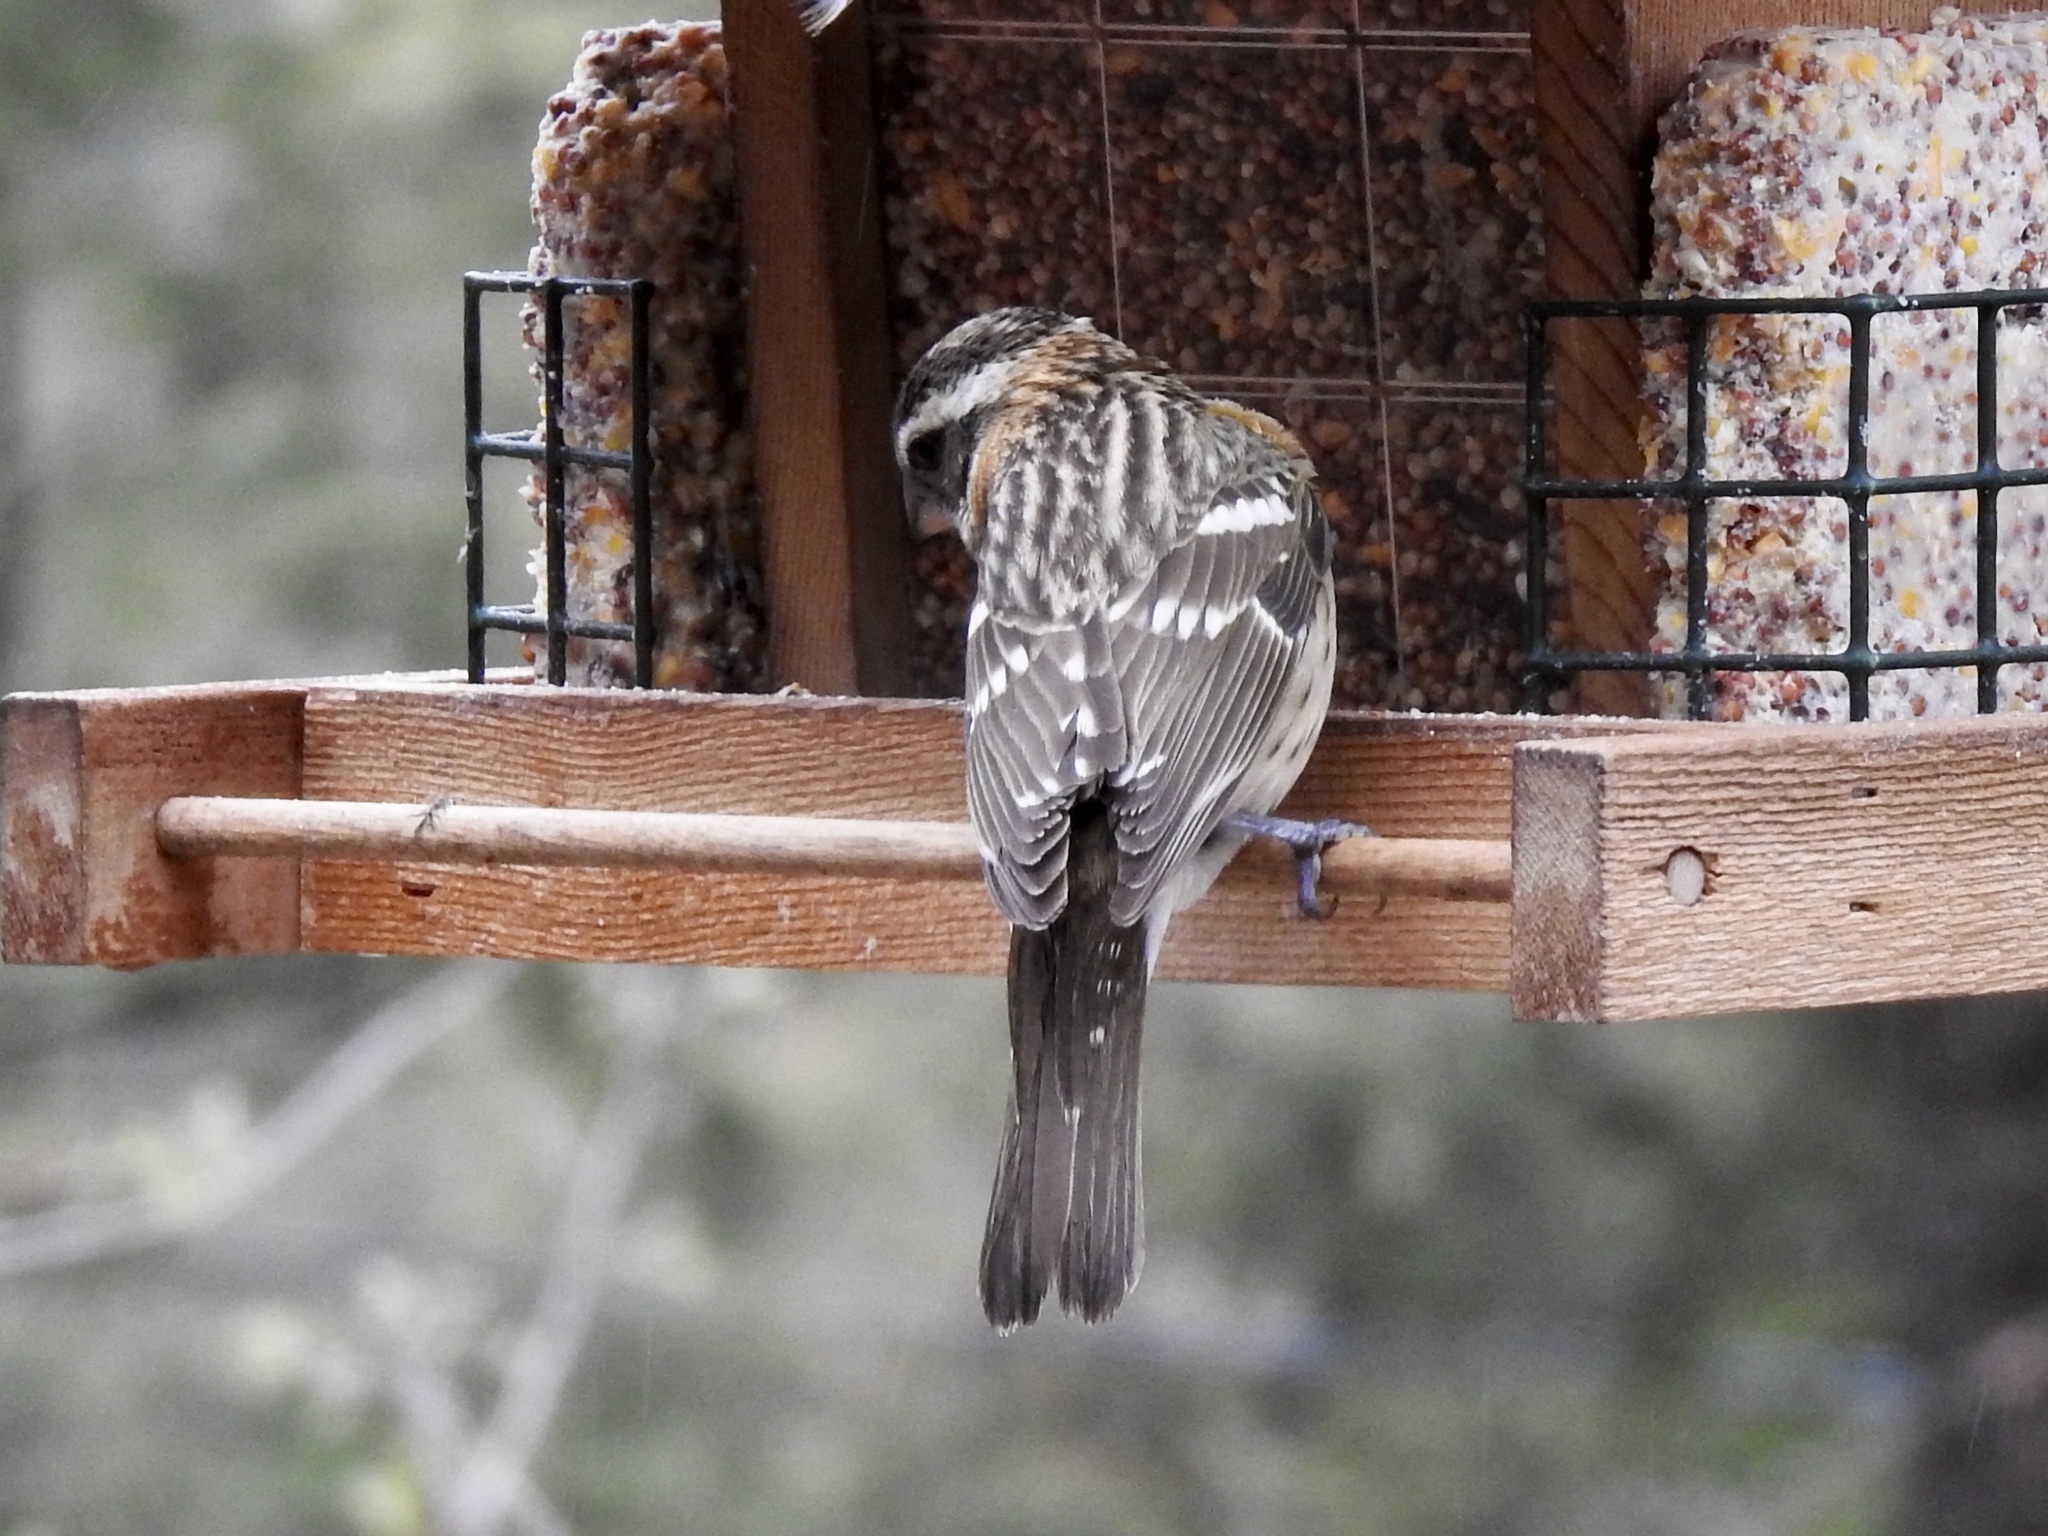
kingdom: Animalia
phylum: Chordata
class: Aves
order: Passeriformes
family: Cardinalidae
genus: Pheucticus
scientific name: Pheucticus melanocephalus
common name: Black-headed grosbeak
